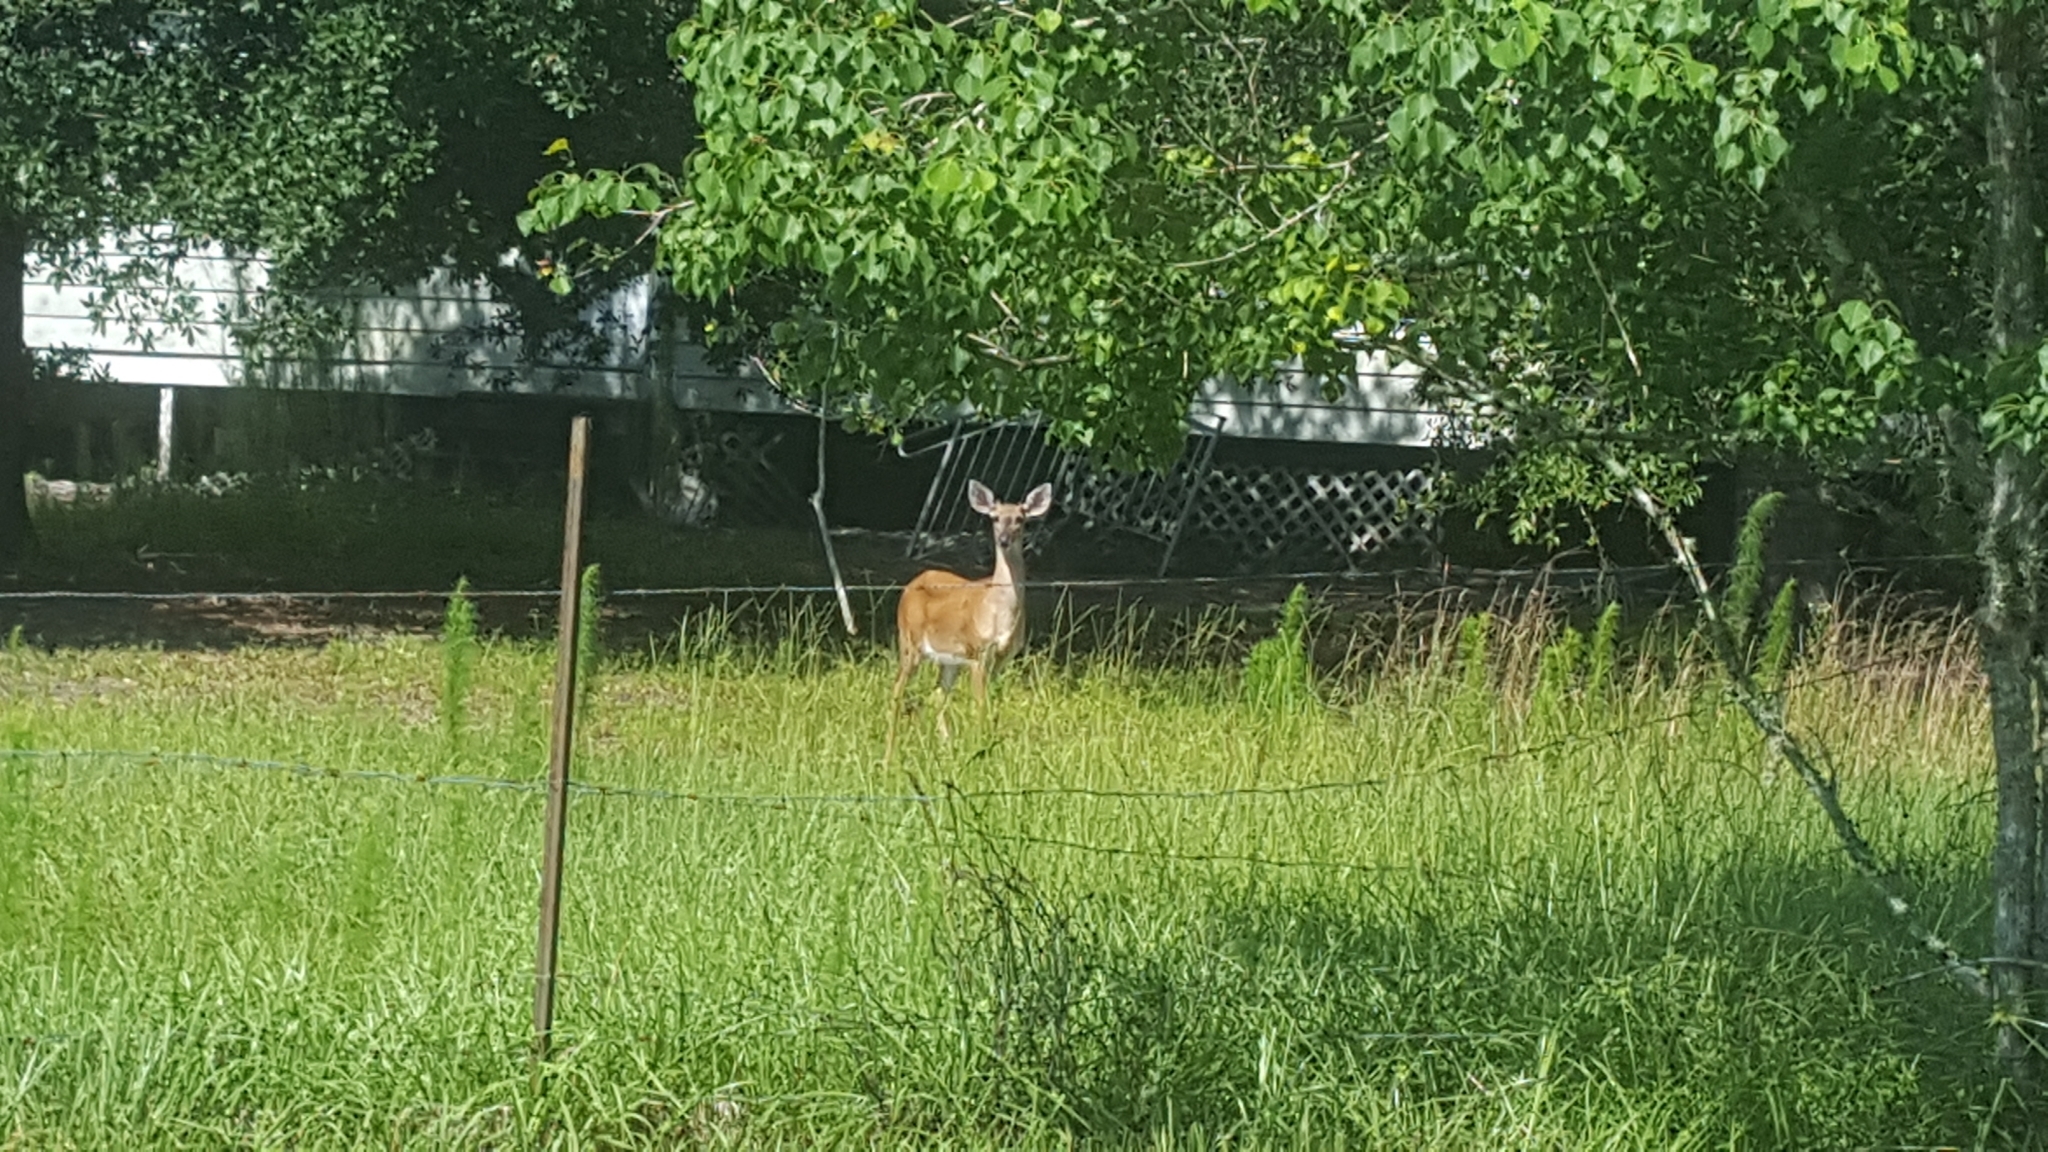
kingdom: Animalia
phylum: Chordata
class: Mammalia
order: Artiodactyla
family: Cervidae
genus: Odocoileus
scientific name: Odocoileus virginianus
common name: White-tailed deer
